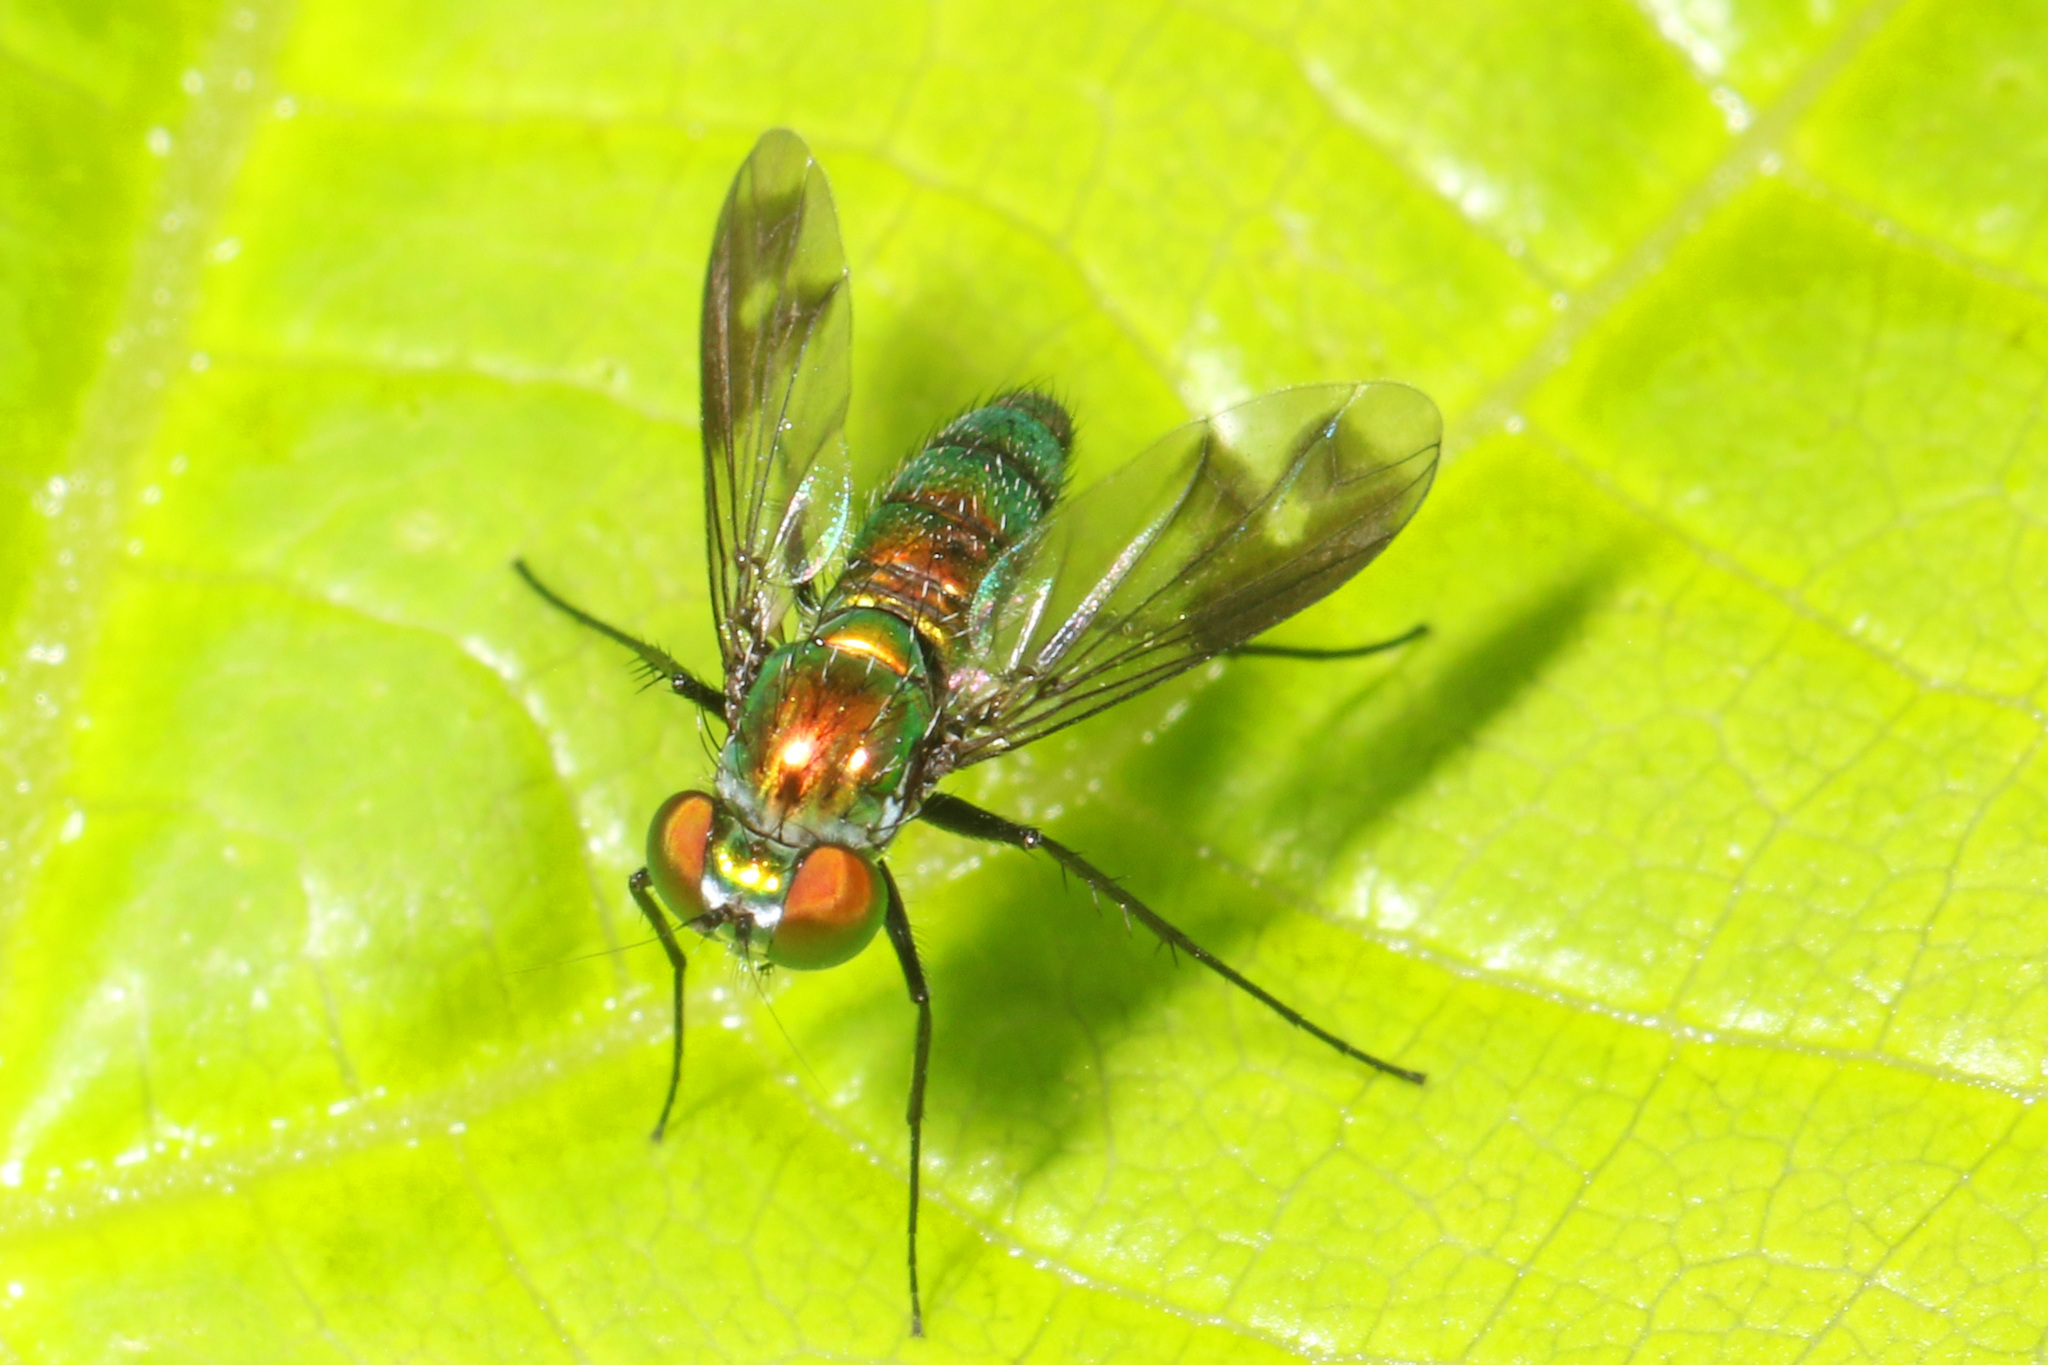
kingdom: Animalia
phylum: Arthropoda
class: Insecta
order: Diptera
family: Dolichopodidae
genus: Condylostylus
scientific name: Condylostylus patibulatus
